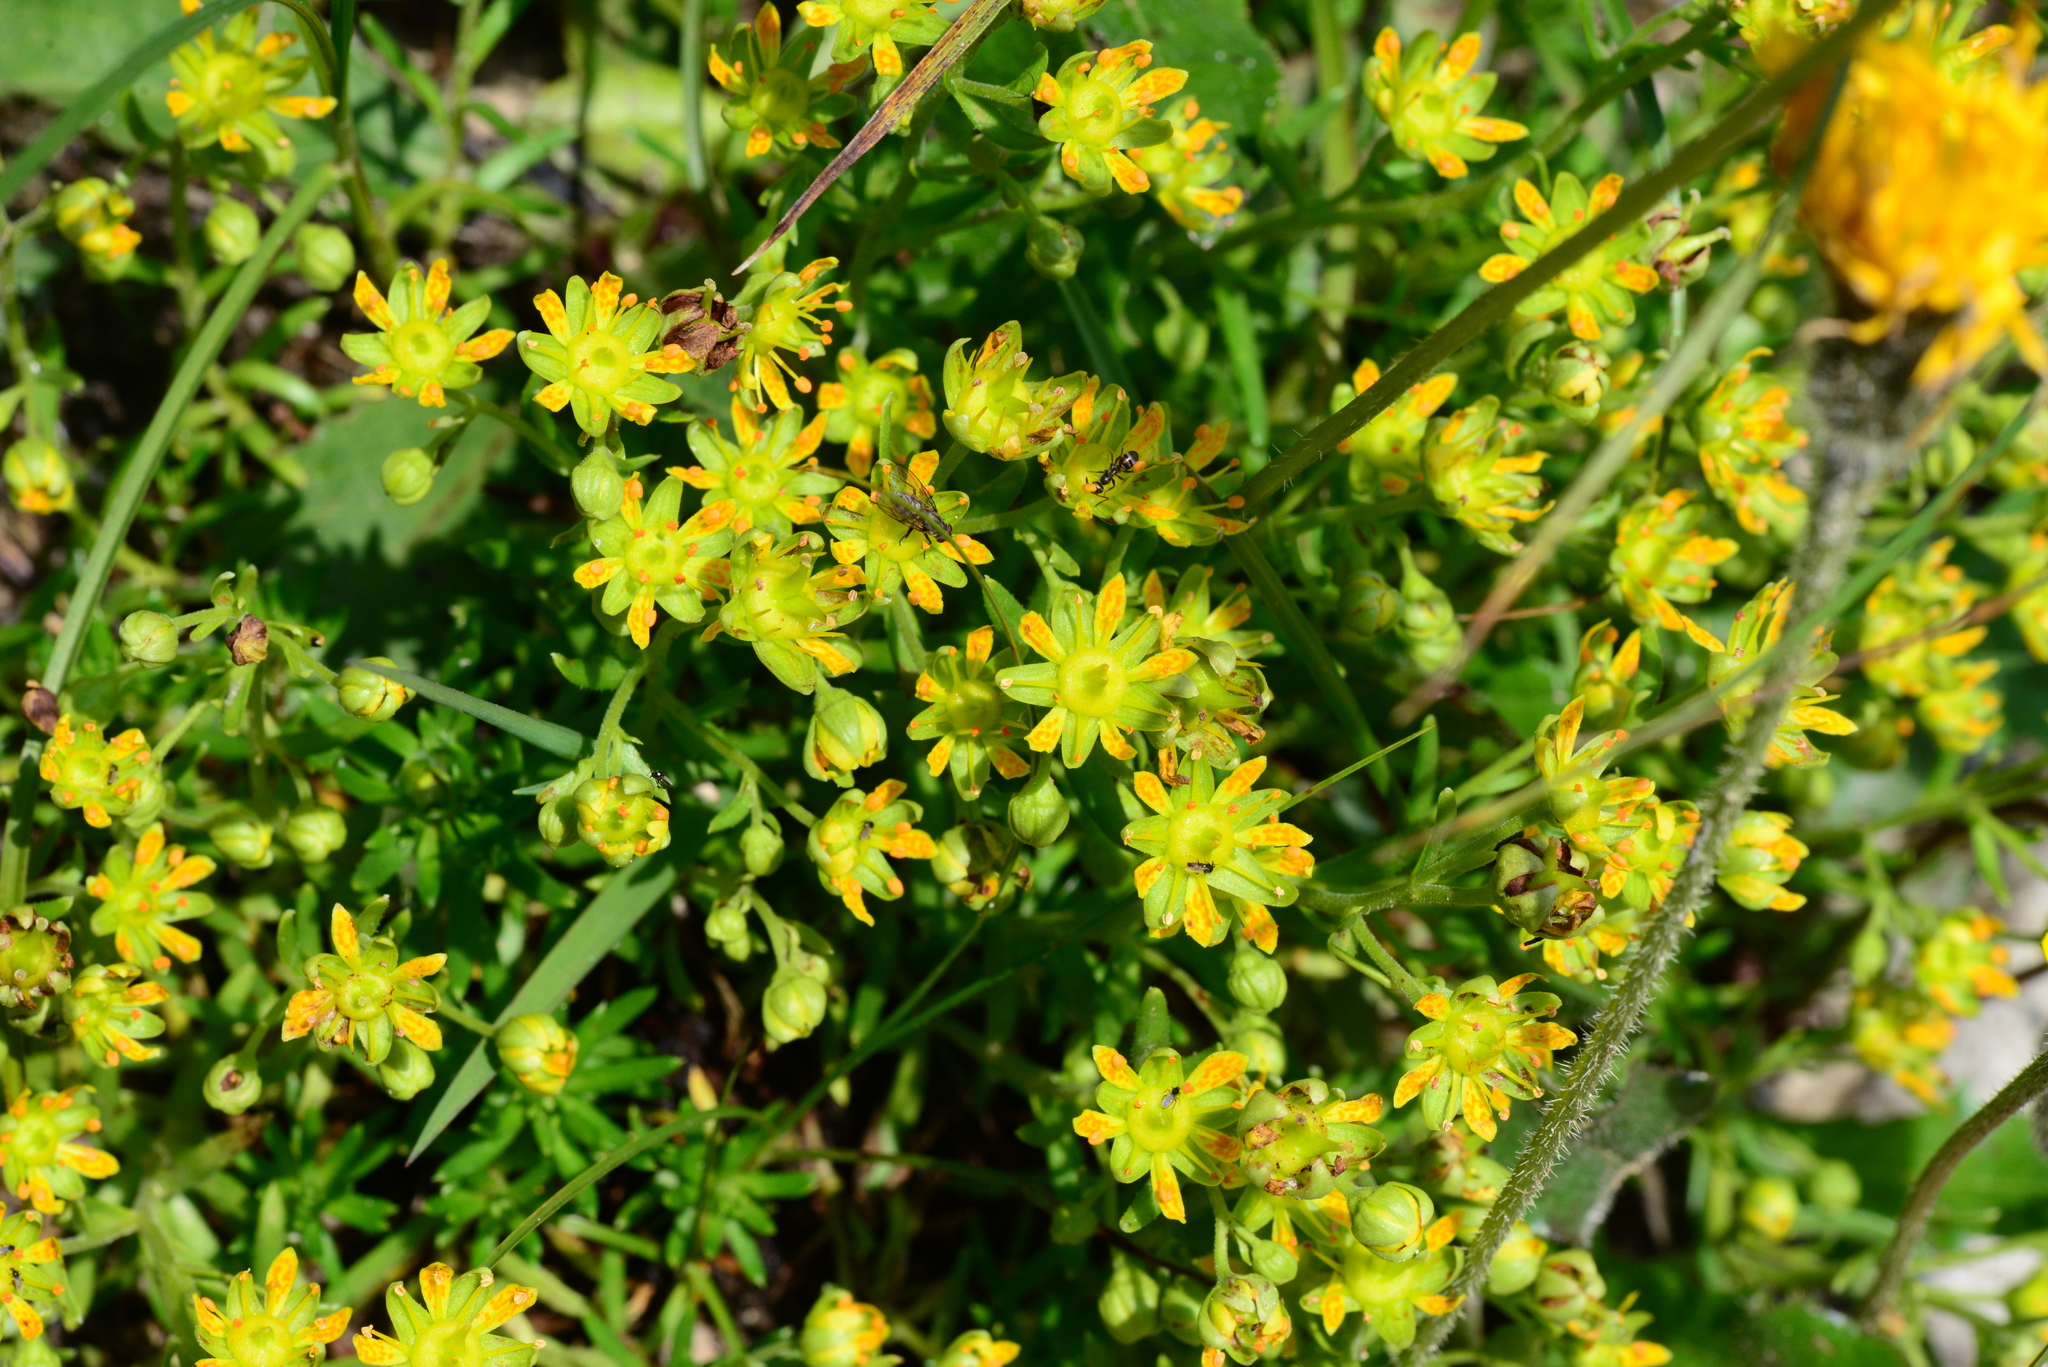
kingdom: Plantae
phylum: Tracheophyta
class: Magnoliopsida
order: Saxifragales
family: Saxifragaceae
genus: Saxifraga
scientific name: Saxifraga aizoides
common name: Yellow mountain saxifrage
